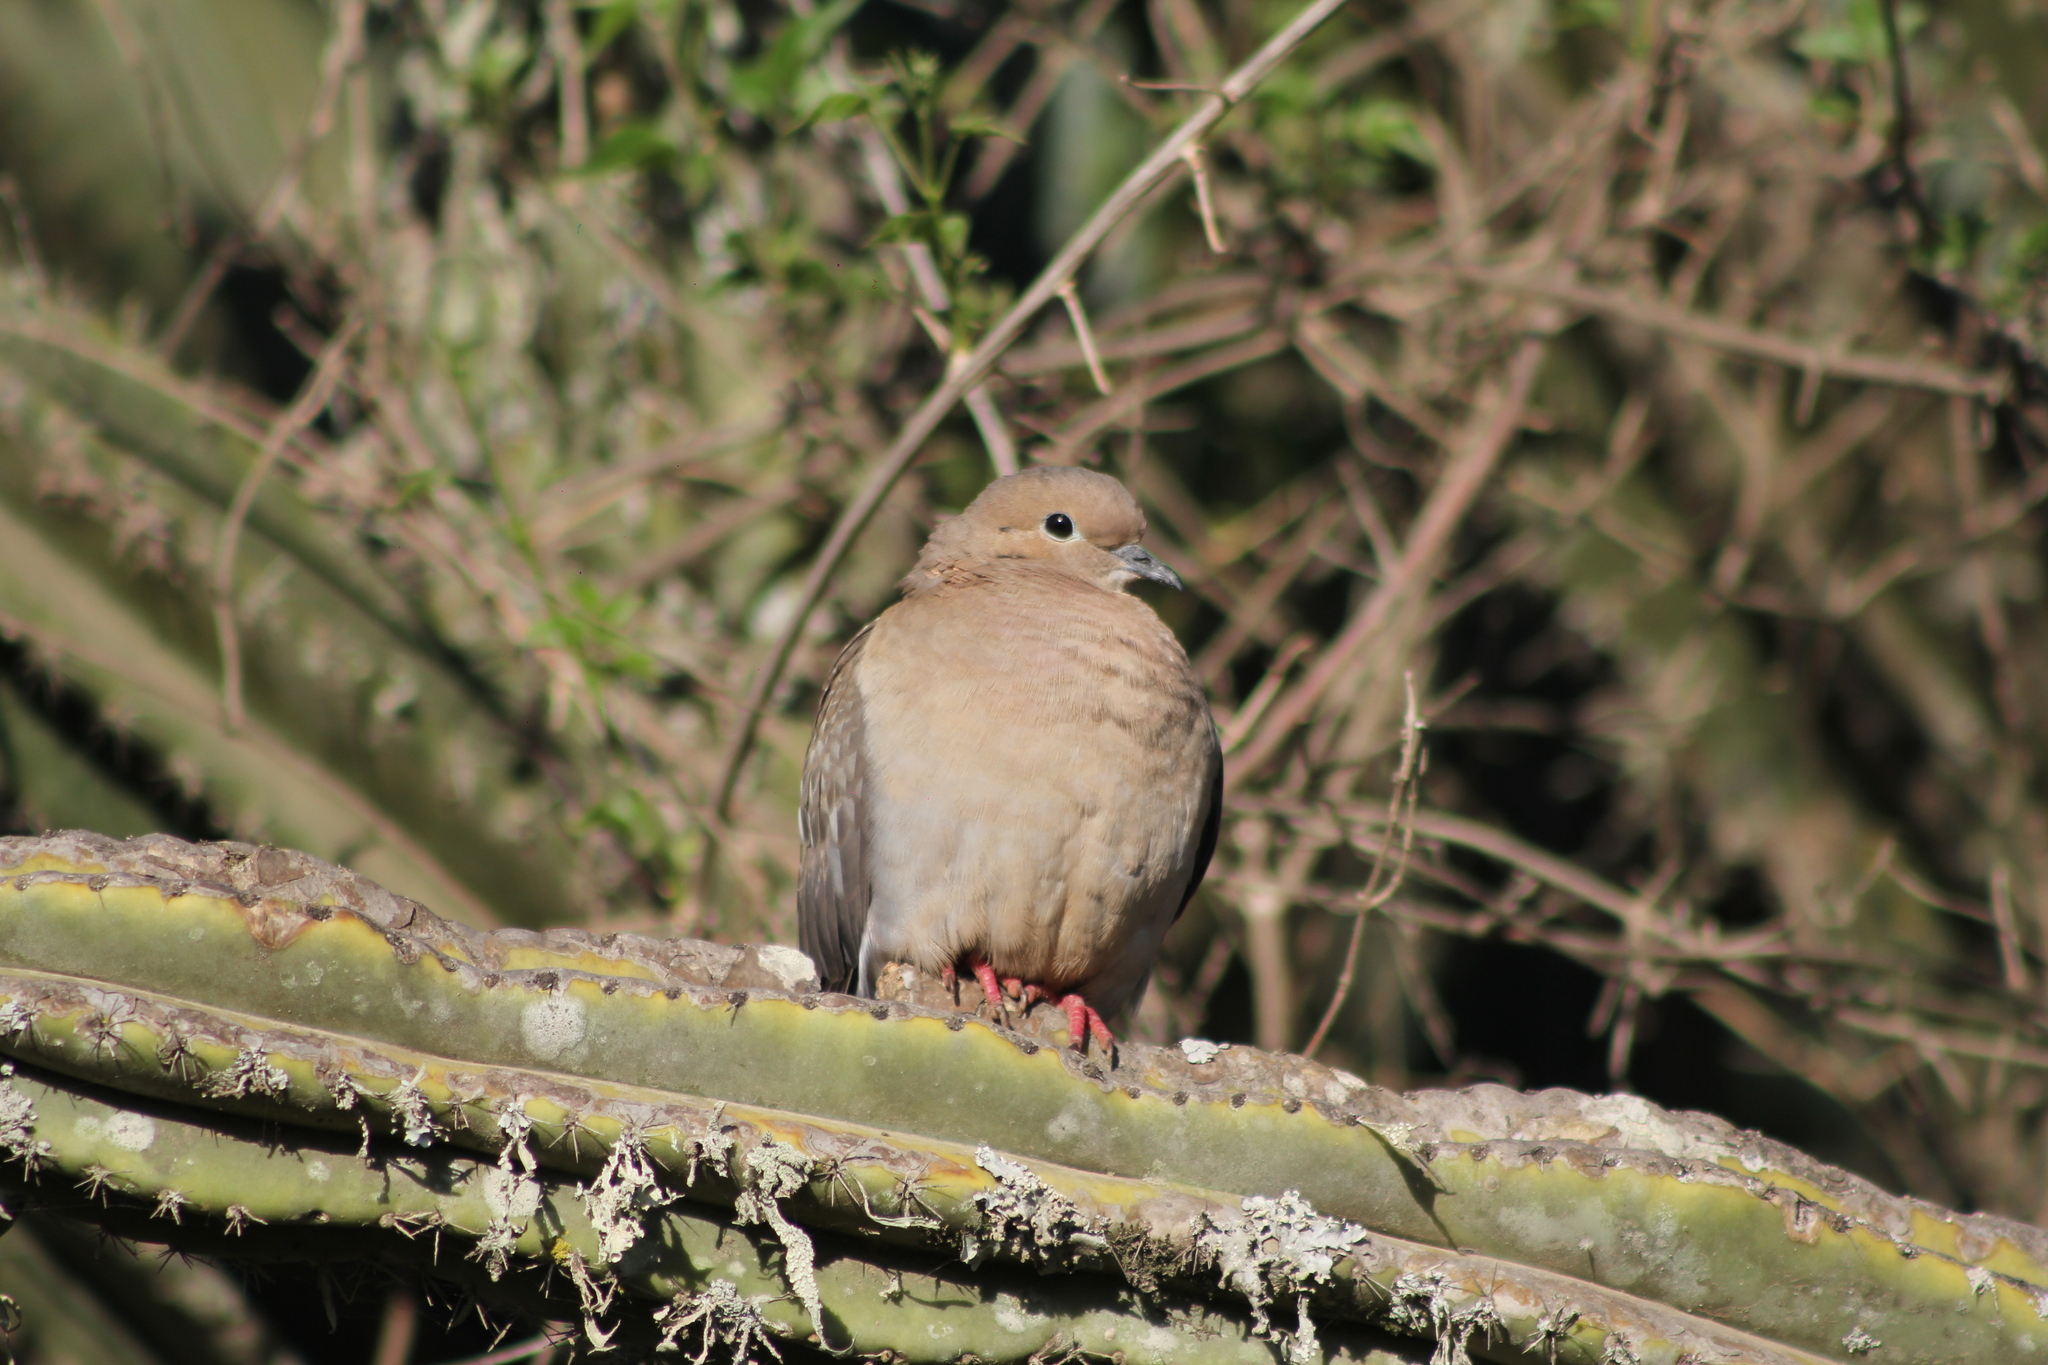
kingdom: Animalia
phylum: Chordata
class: Aves
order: Columbiformes
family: Columbidae
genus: Zenaida
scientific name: Zenaida auriculata
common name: Eared dove
